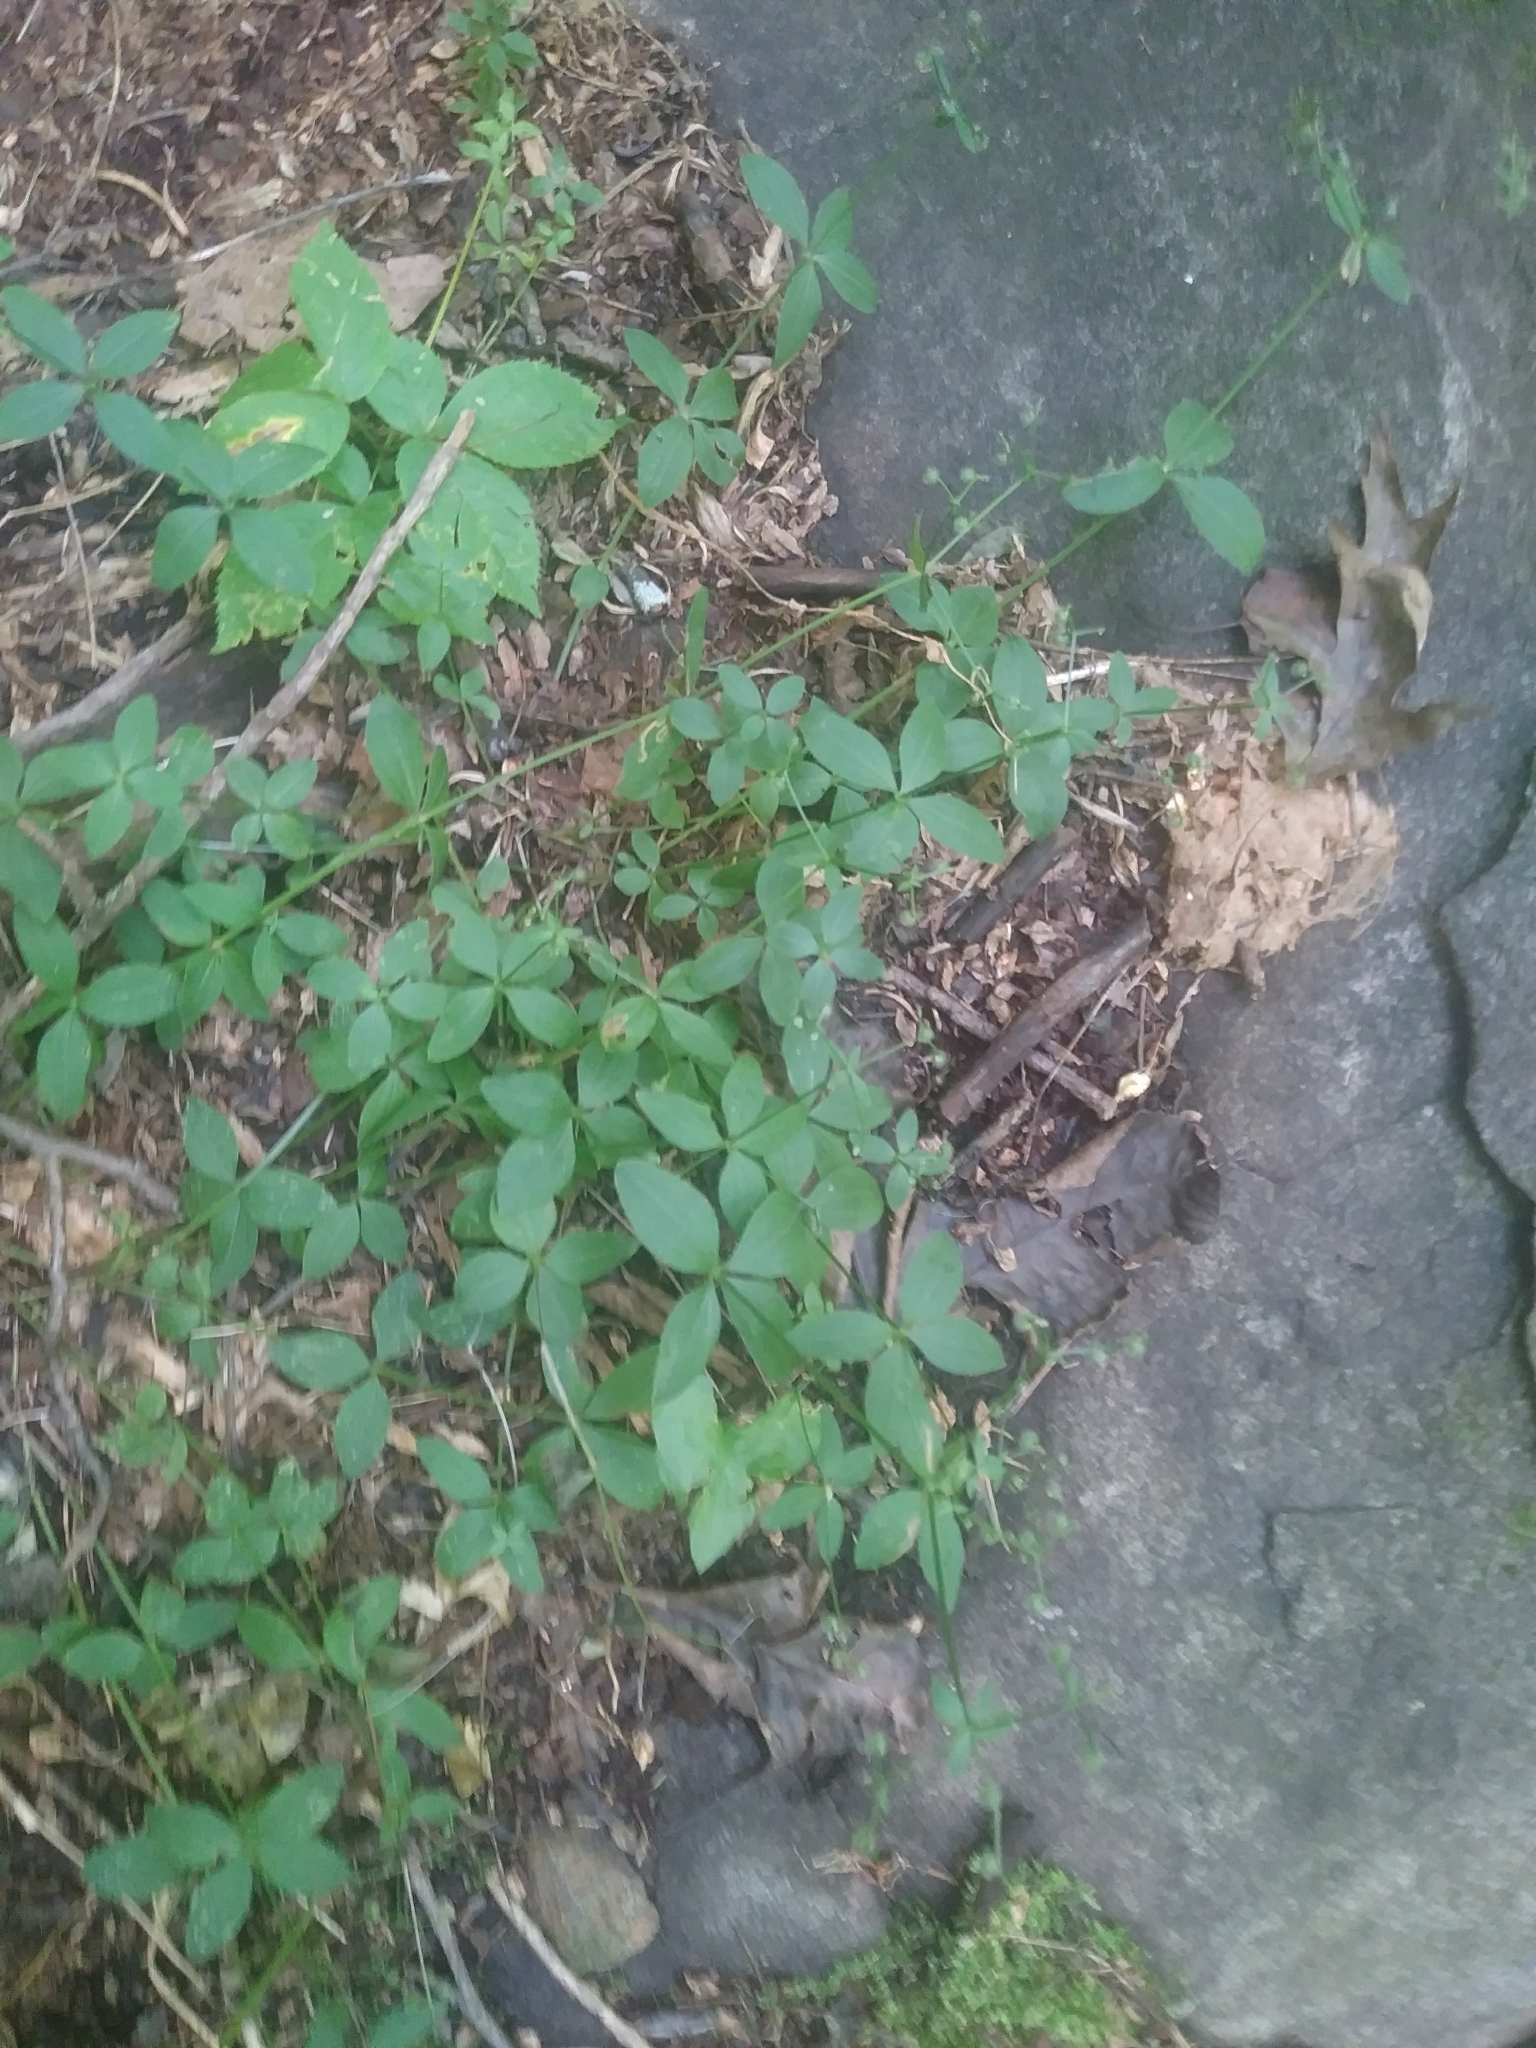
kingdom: Plantae
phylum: Tracheophyta
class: Magnoliopsida
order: Gentianales
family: Rubiaceae
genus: Galium
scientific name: Galium circaezans
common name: Forest bedstraw
